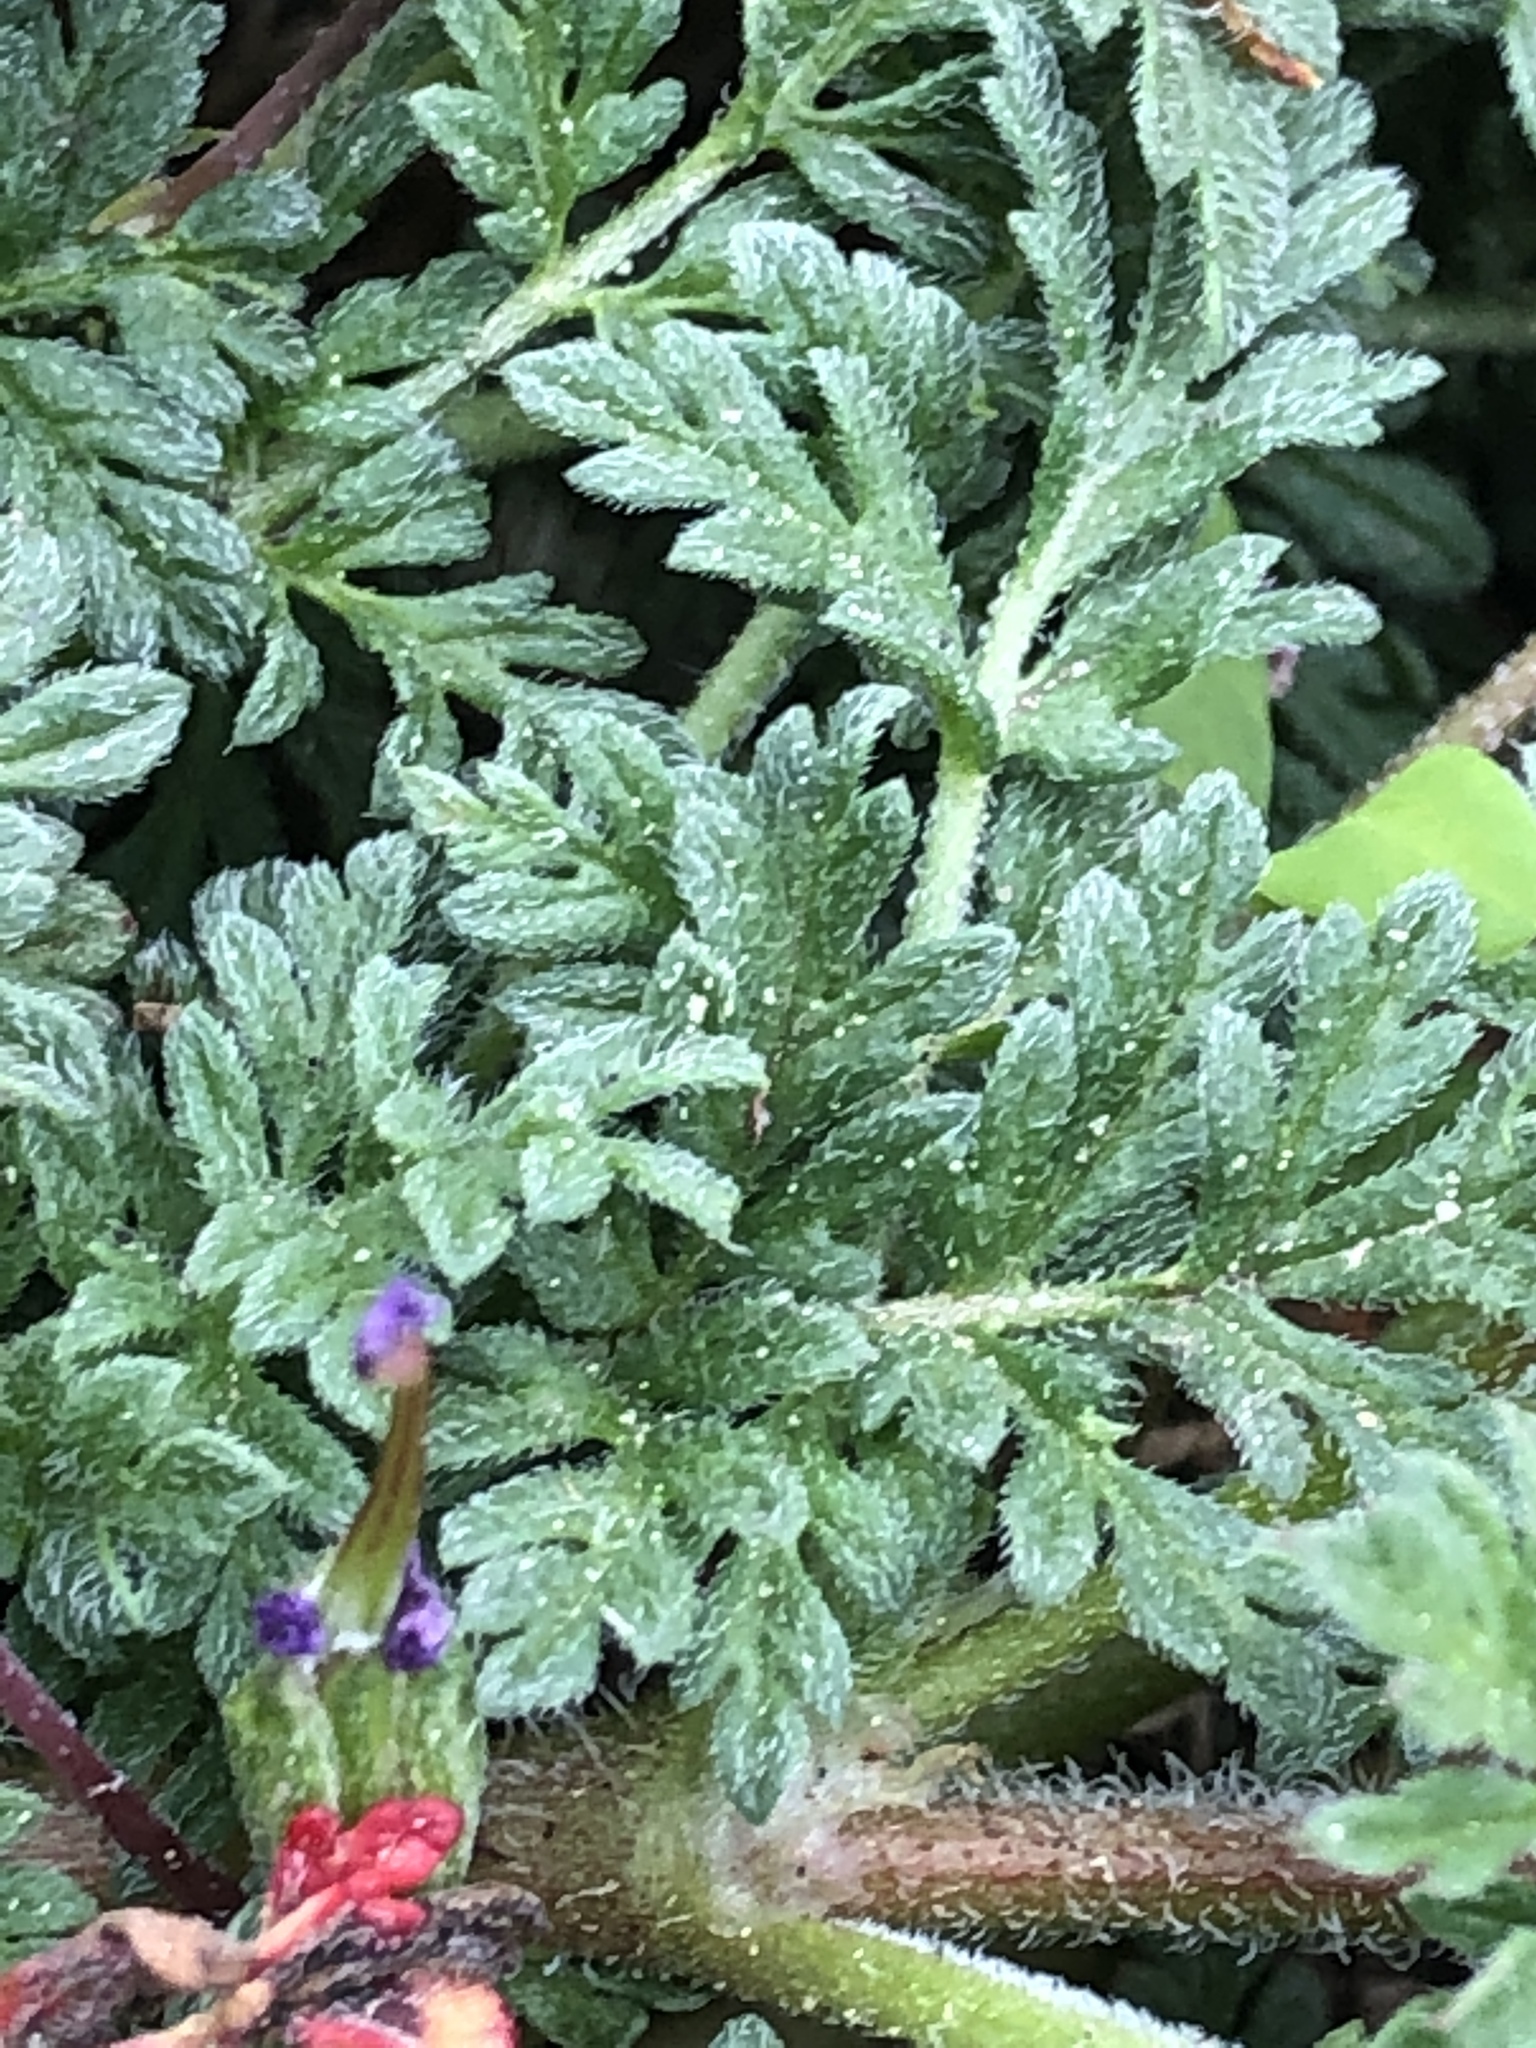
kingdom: Plantae
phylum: Tracheophyta
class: Magnoliopsida
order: Geraniales
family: Geraniaceae
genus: Erodium
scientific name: Erodium cicutarium
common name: Common stork's-bill
